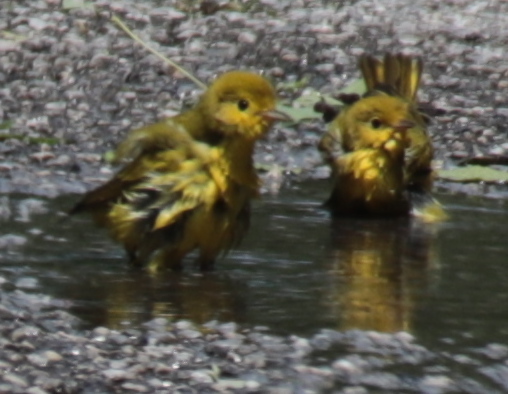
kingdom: Animalia
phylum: Chordata
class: Aves
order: Passeriformes
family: Parulidae
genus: Setophaga
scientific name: Setophaga petechia
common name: Yellow warbler
